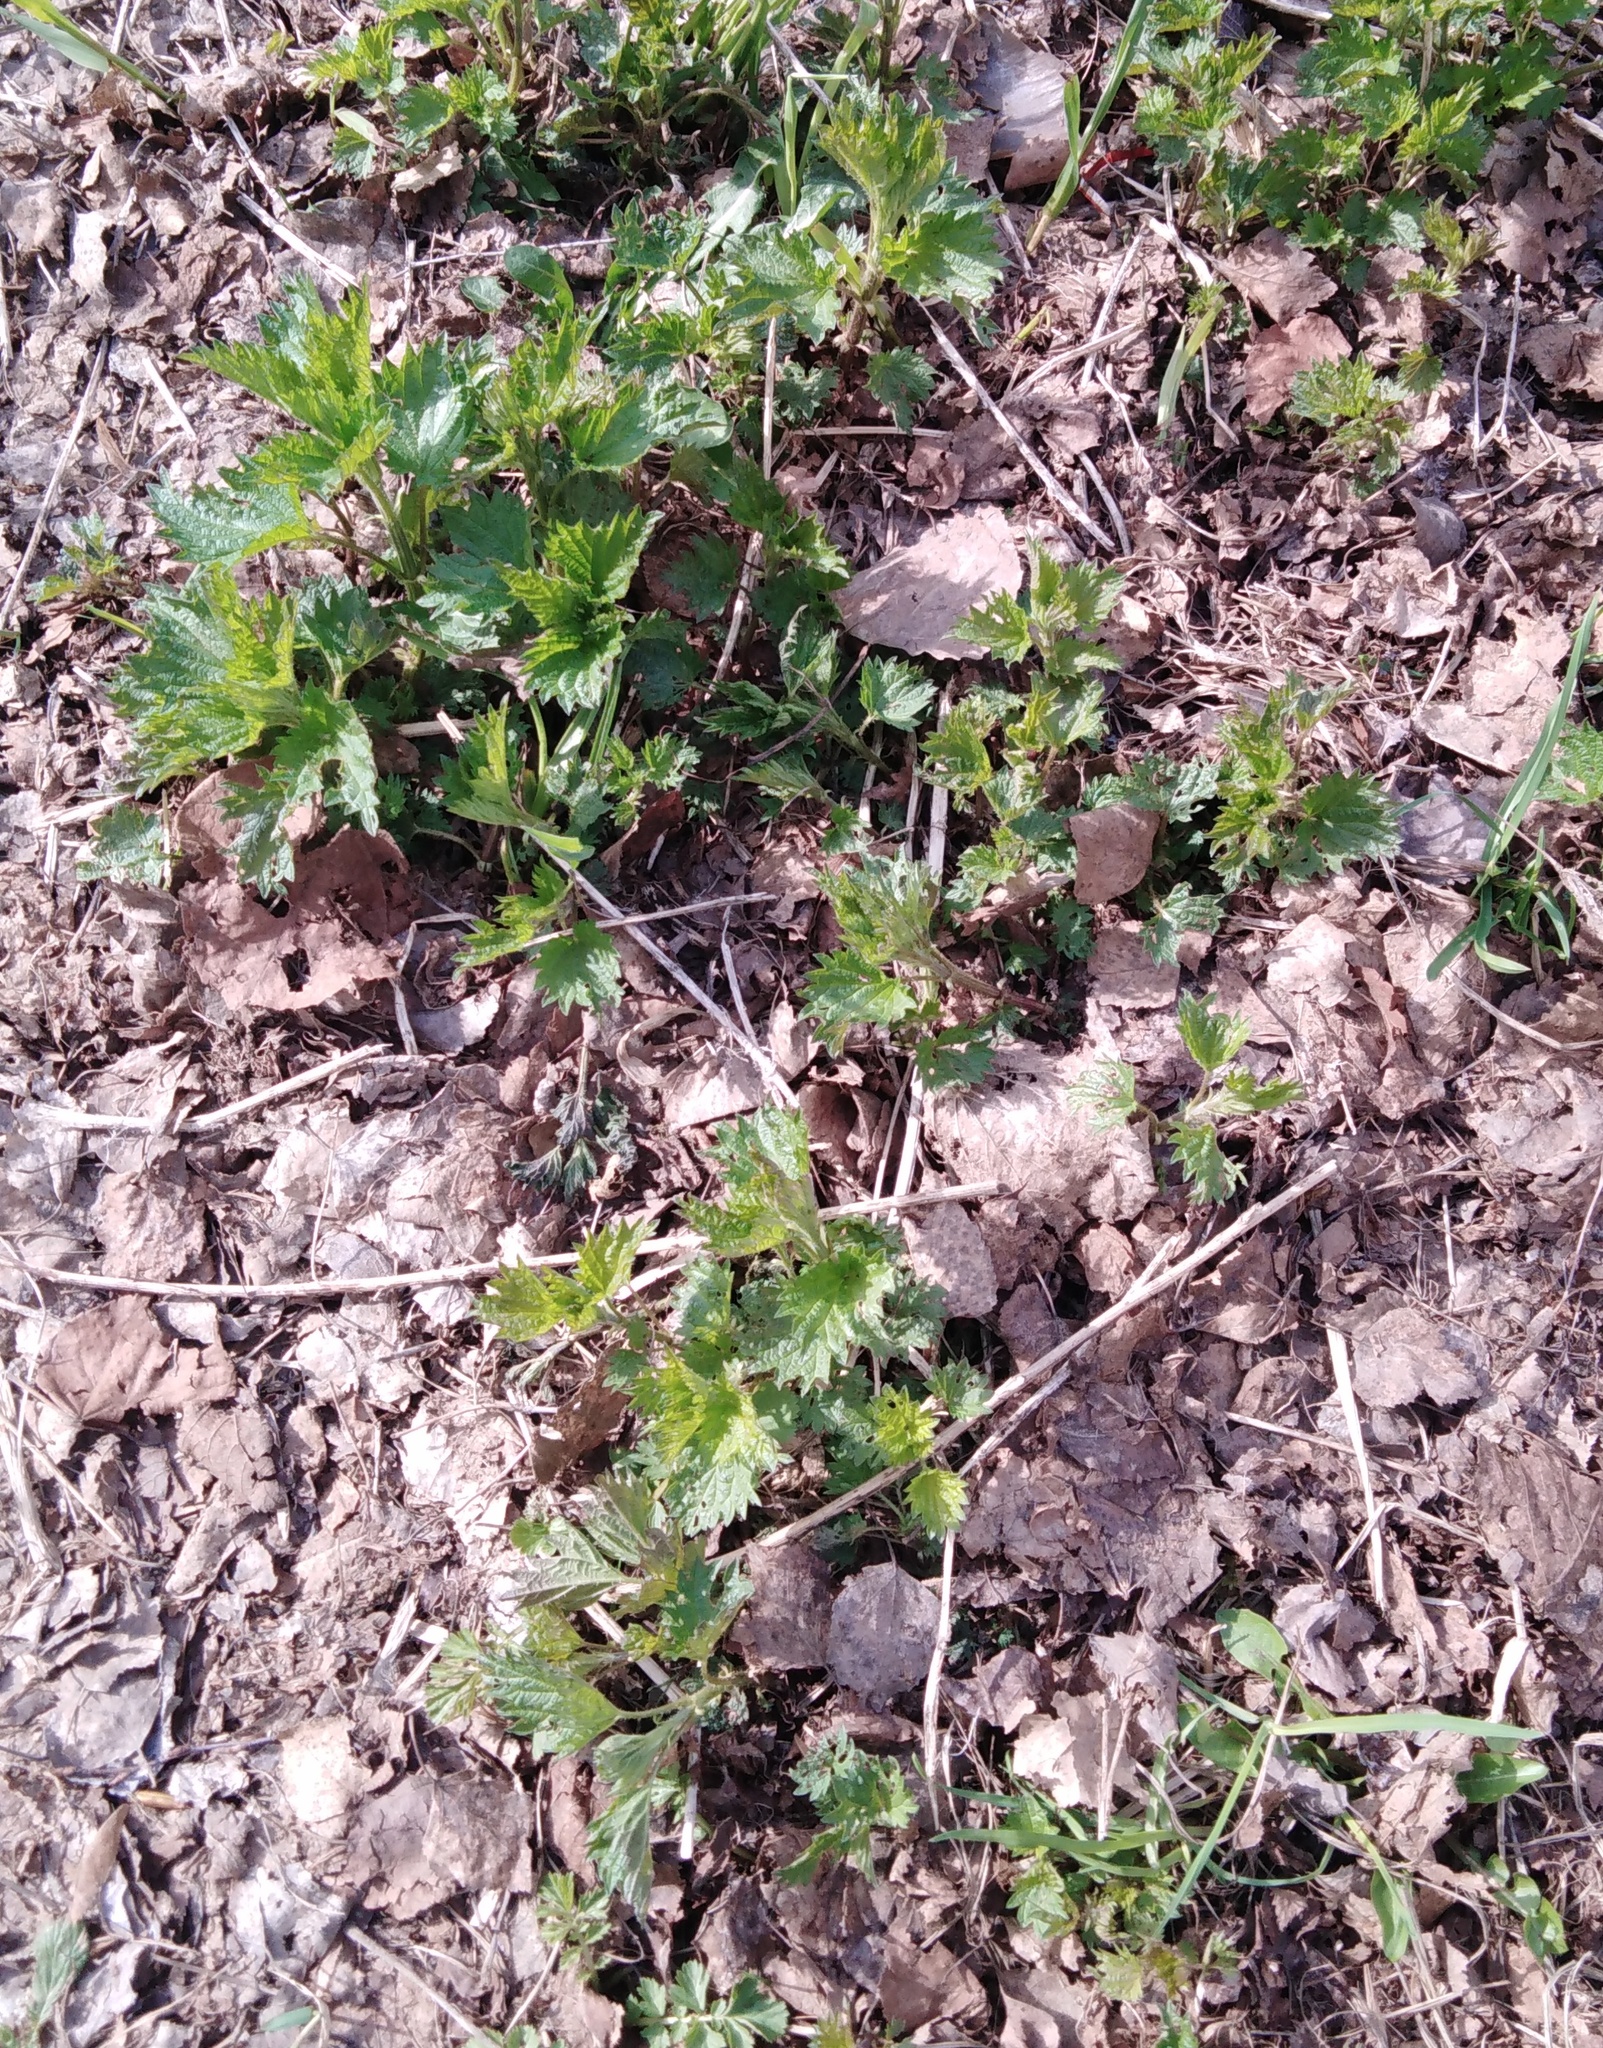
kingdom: Plantae
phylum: Tracheophyta
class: Magnoliopsida
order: Rosales
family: Urticaceae
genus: Urtica
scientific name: Urtica dioica
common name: Common nettle
